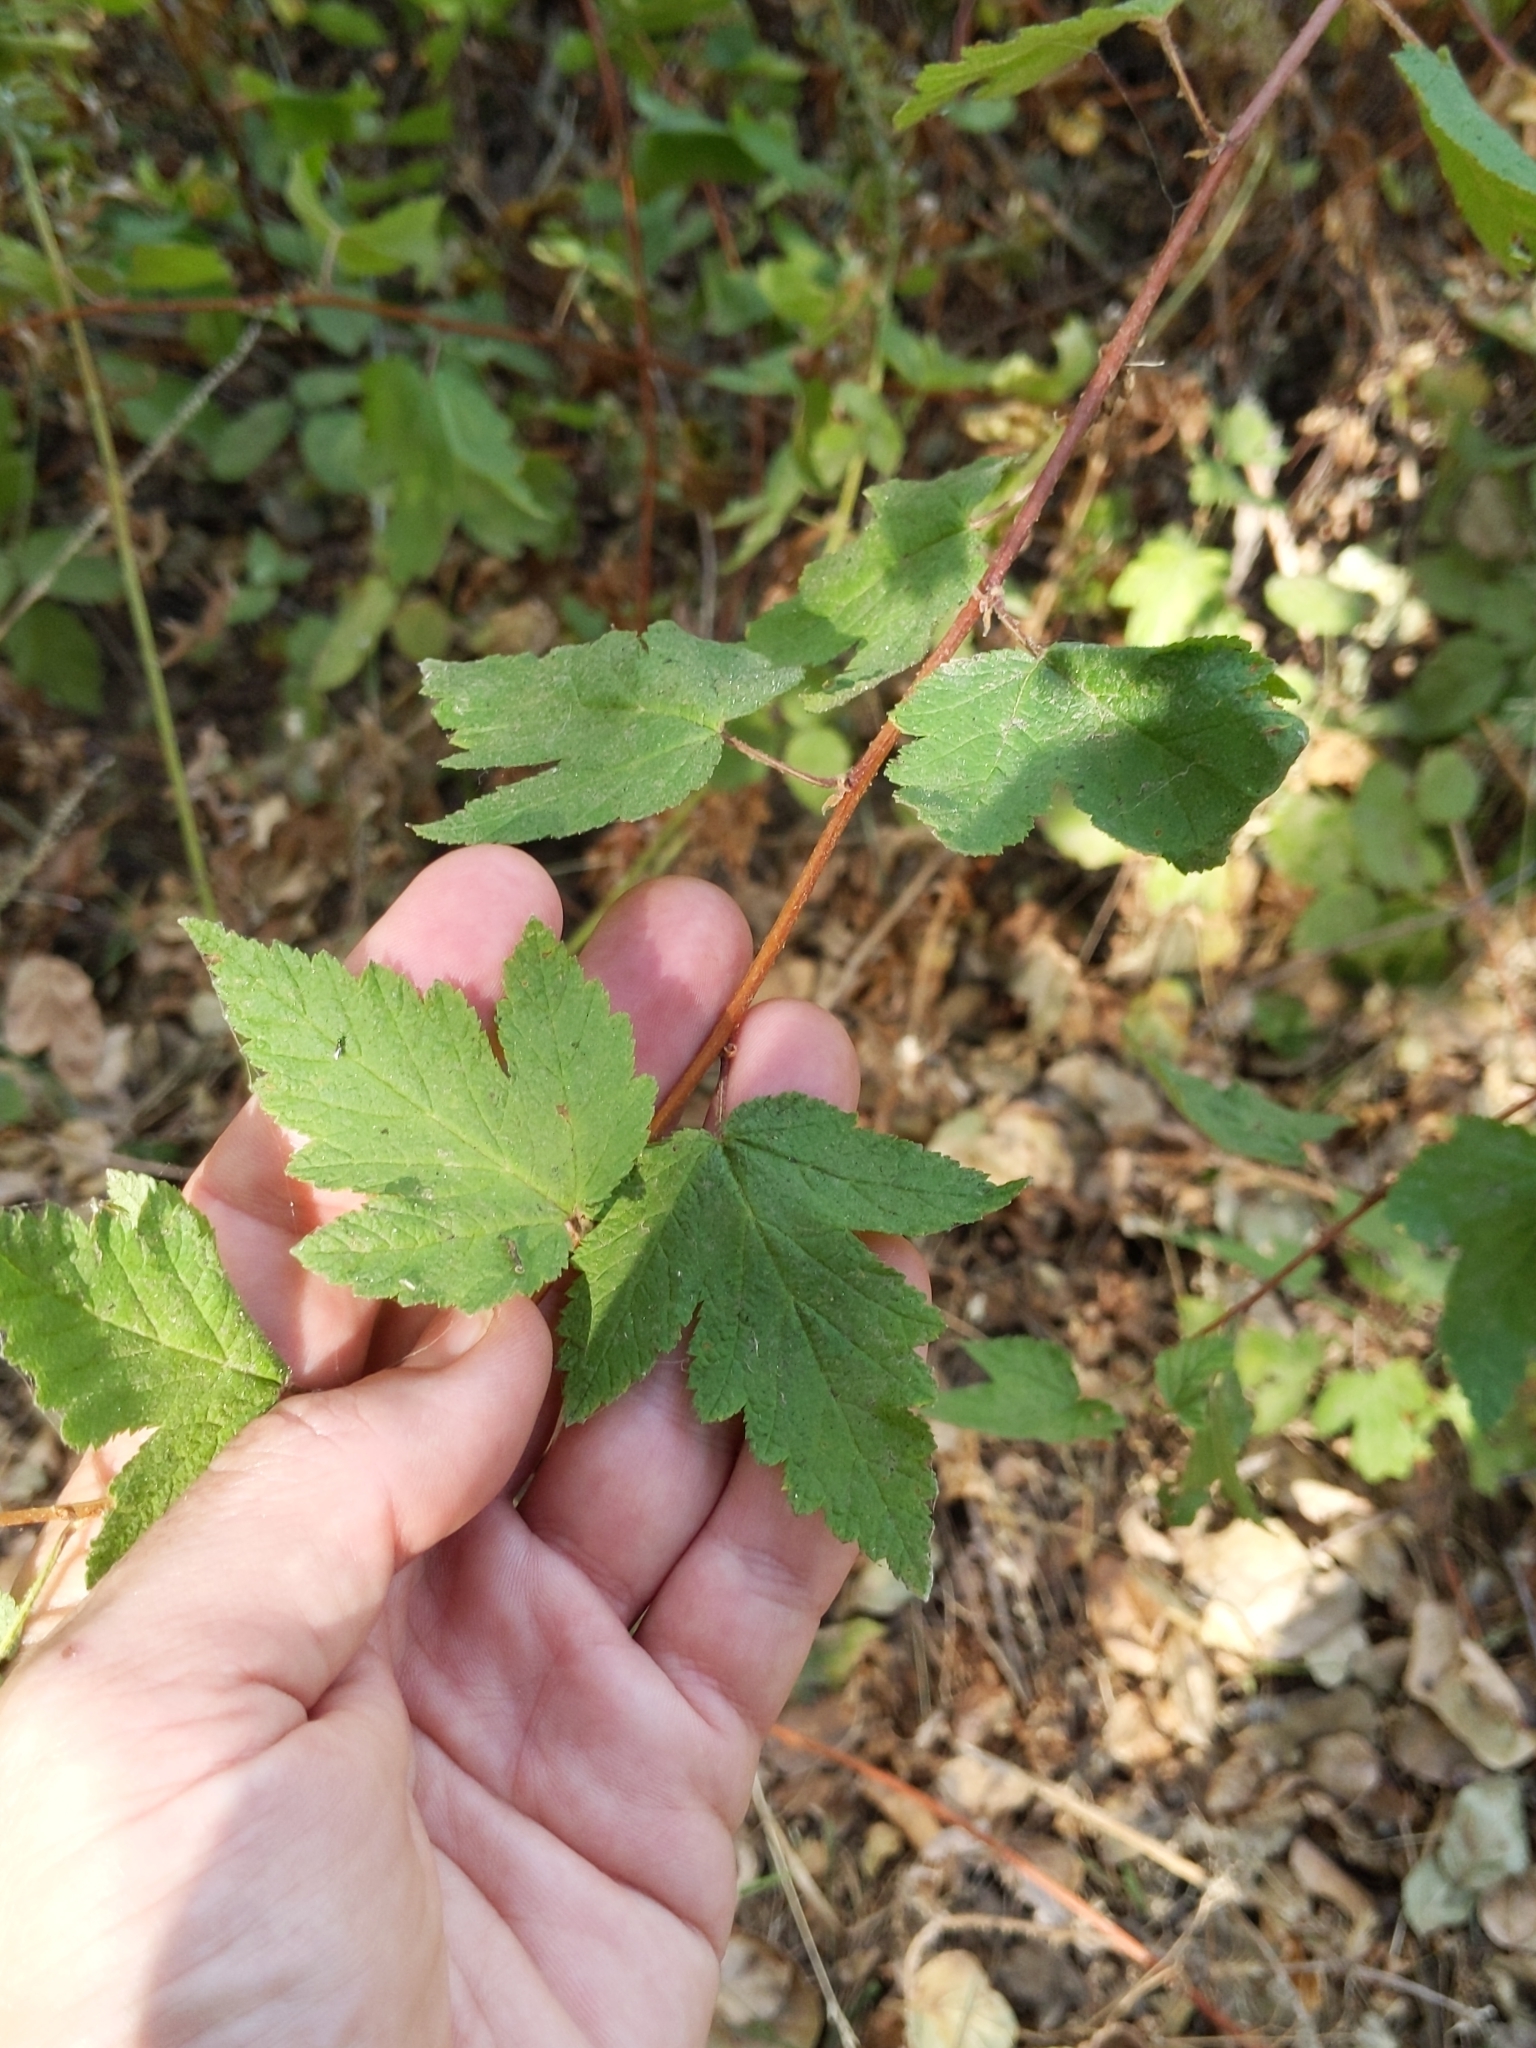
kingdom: Plantae
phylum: Tracheophyta
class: Magnoliopsida
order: Rosales
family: Rosaceae
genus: Physocarpus
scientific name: Physocarpus capitatus
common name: Pacific ninebark
